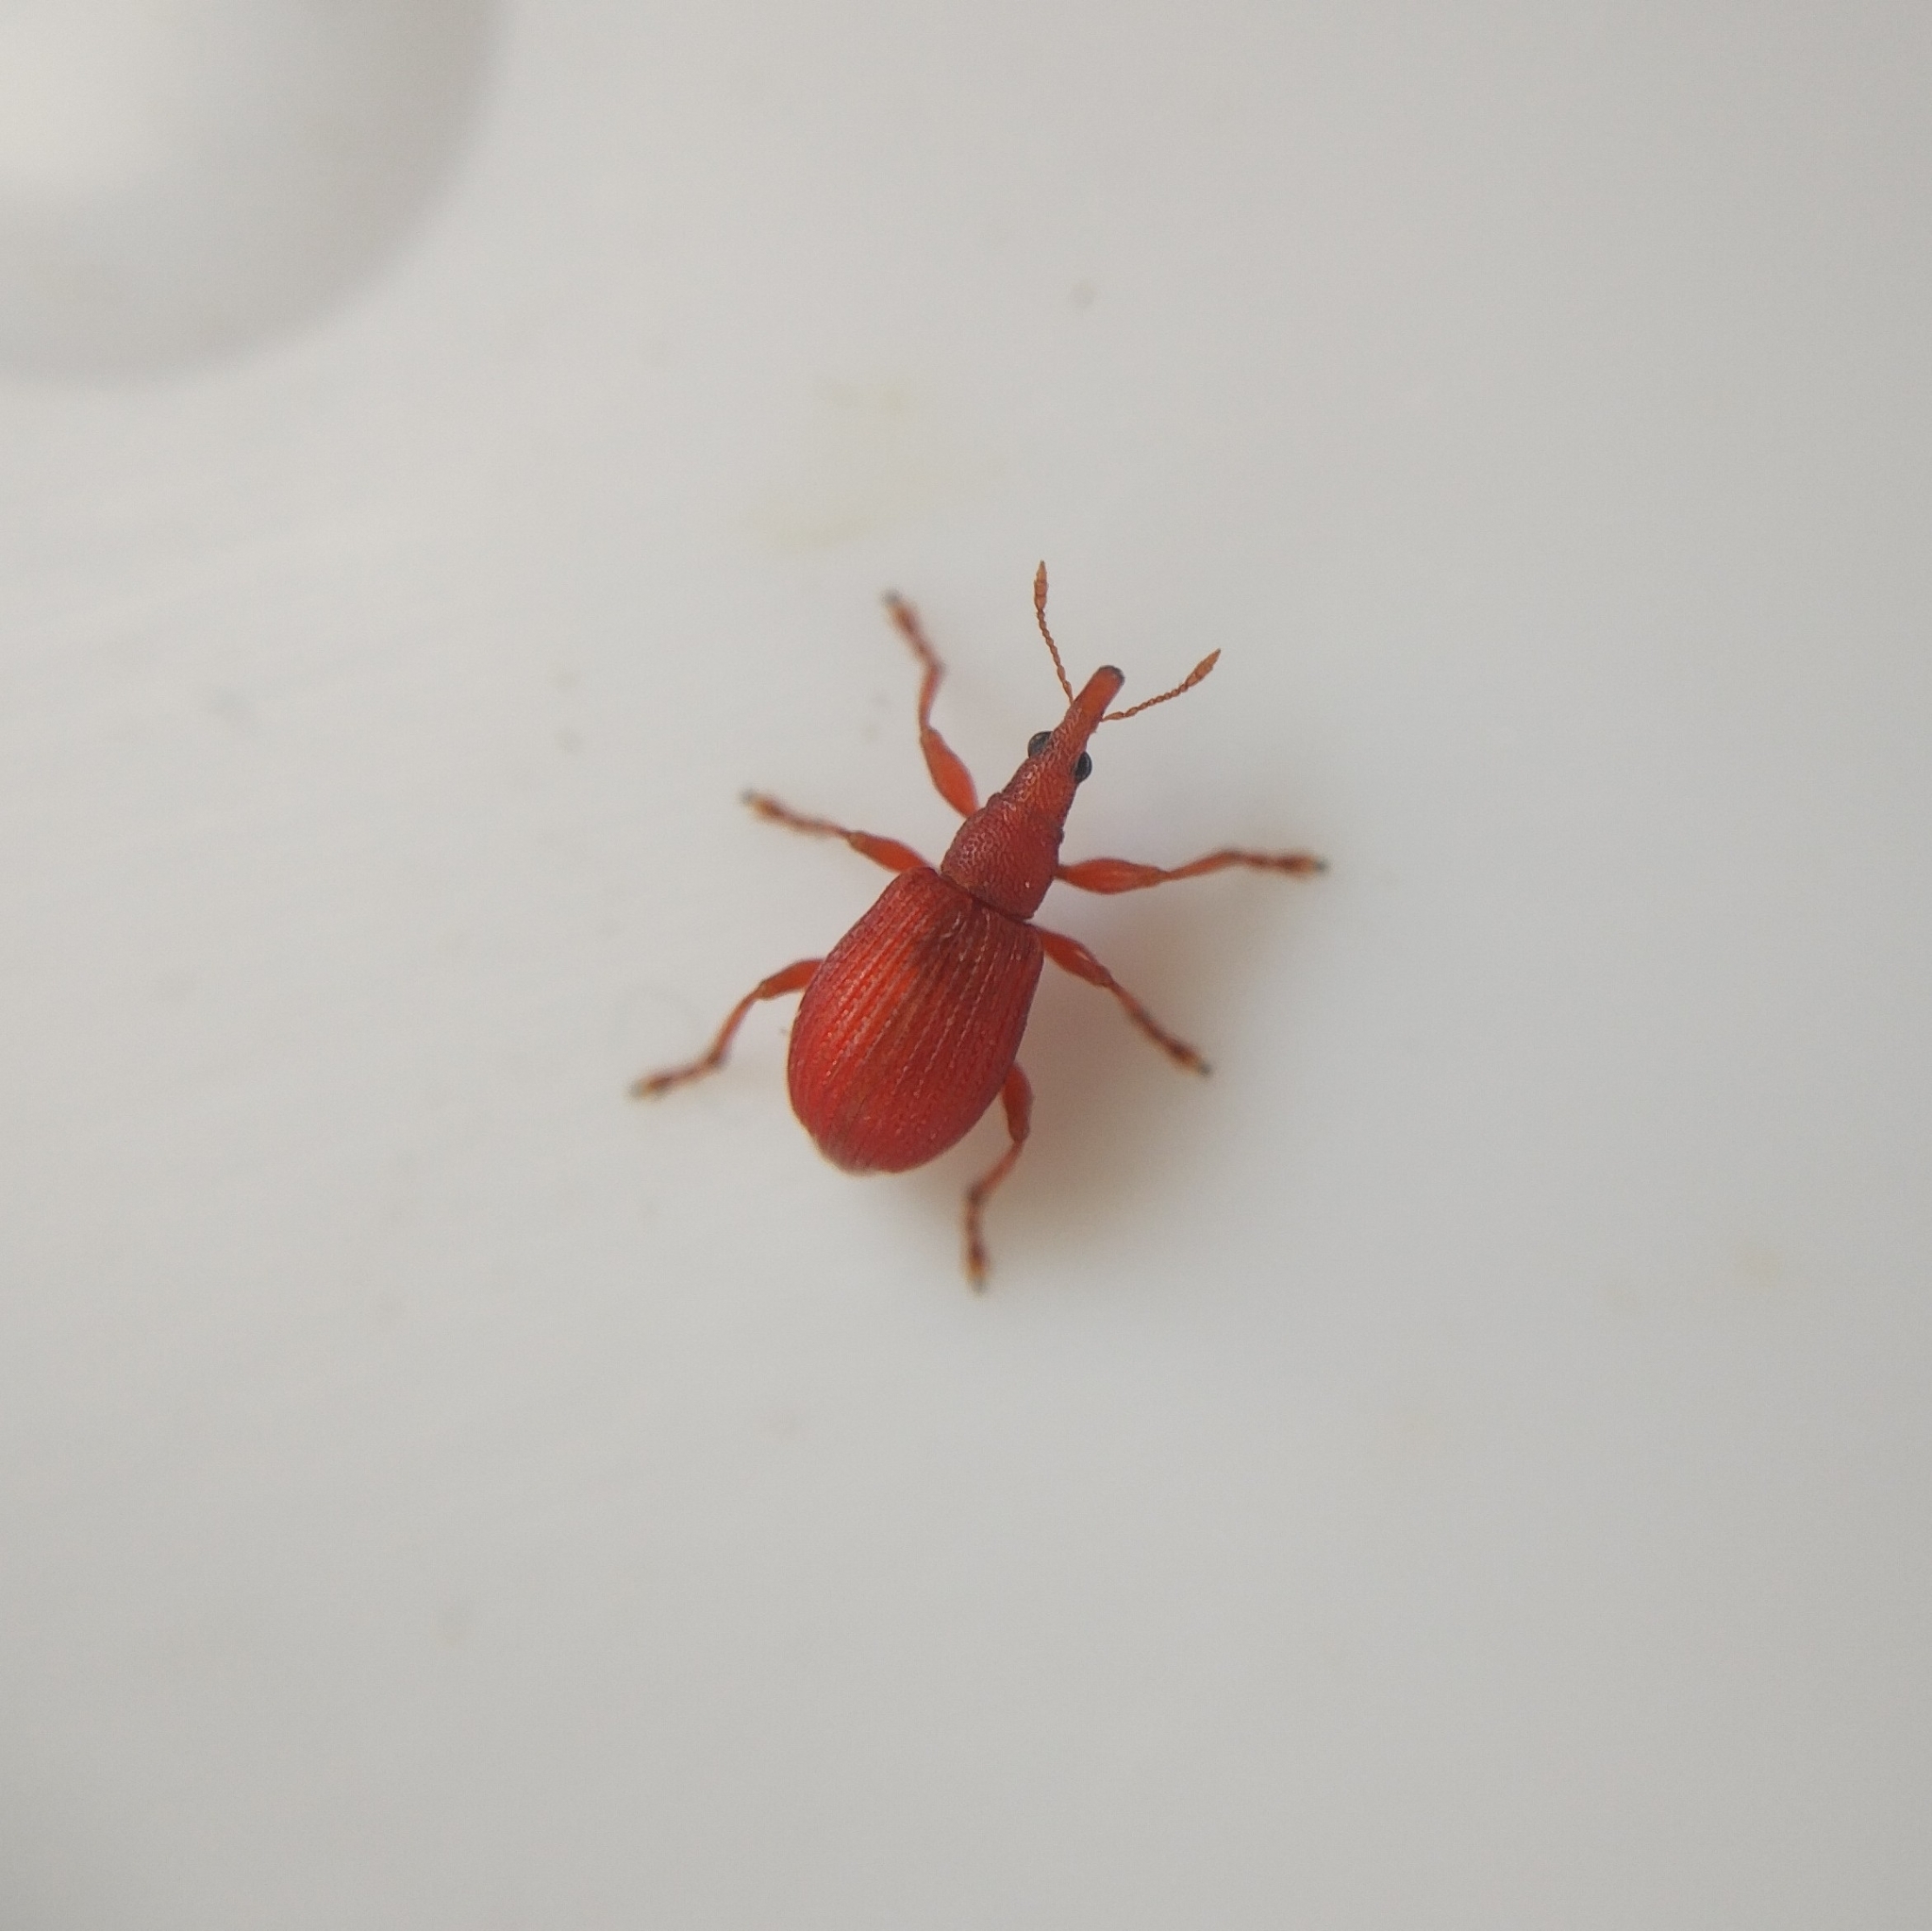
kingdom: Animalia
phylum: Arthropoda
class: Insecta
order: Coleoptera
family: Apionidae
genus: Apion
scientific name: Apion frumentarium
